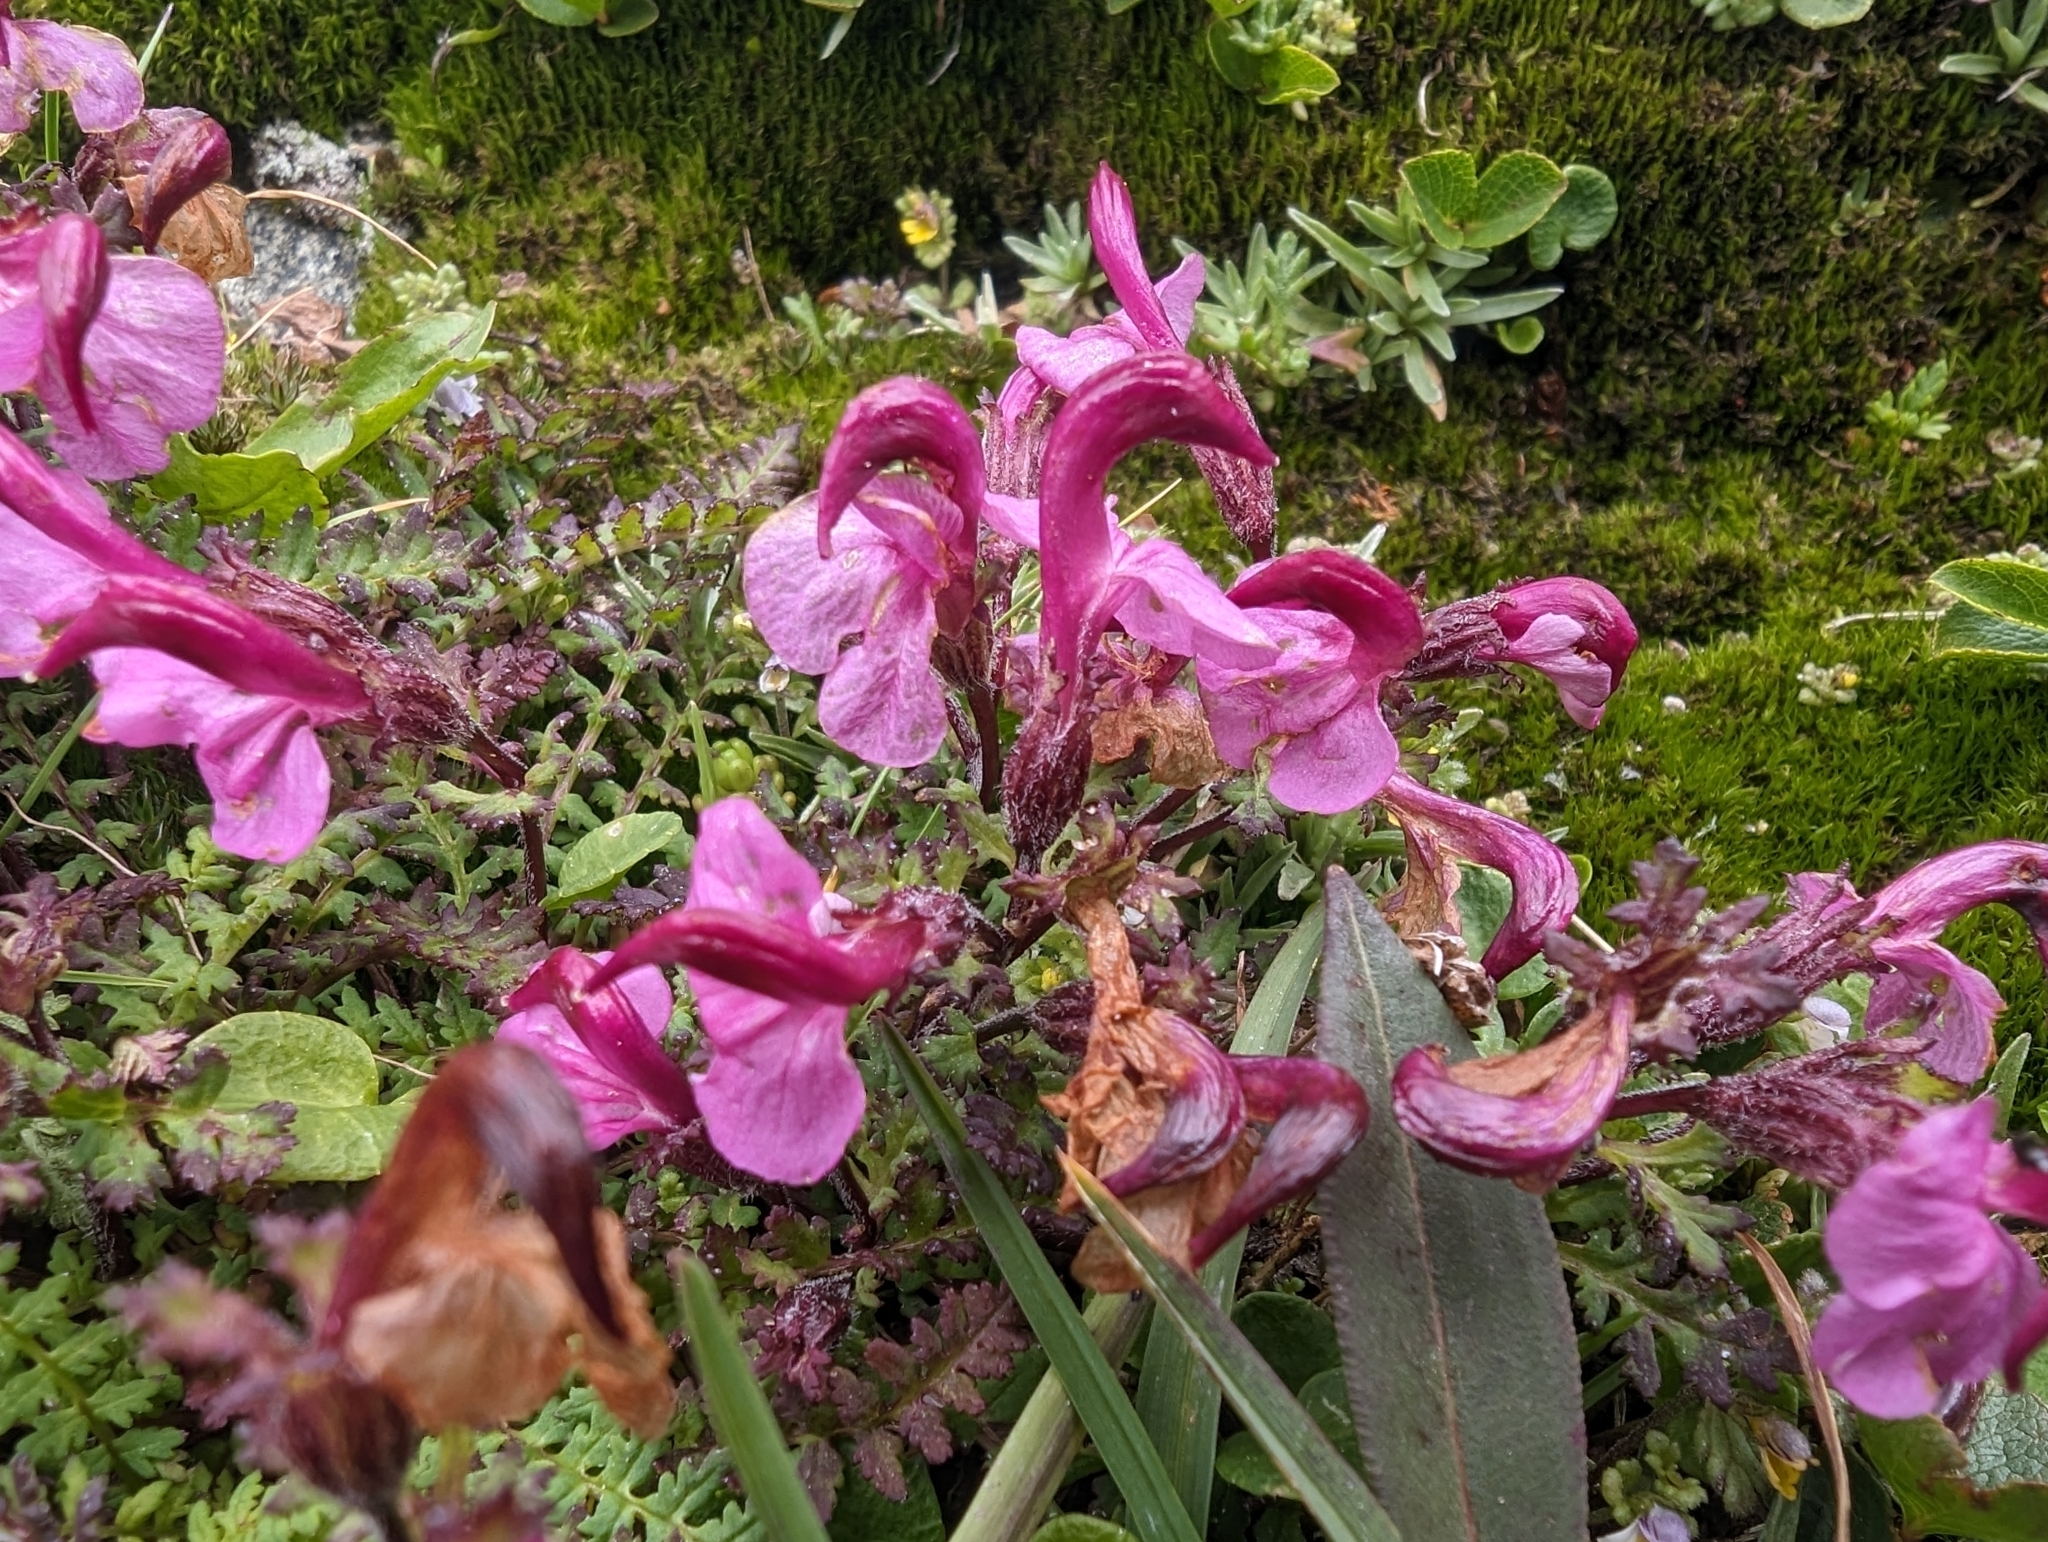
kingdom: Plantae
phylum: Tracheophyta
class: Magnoliopsida
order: Lamiales
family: Orobanchaceae
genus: Pedicularis
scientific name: Pedicularis kerneri
